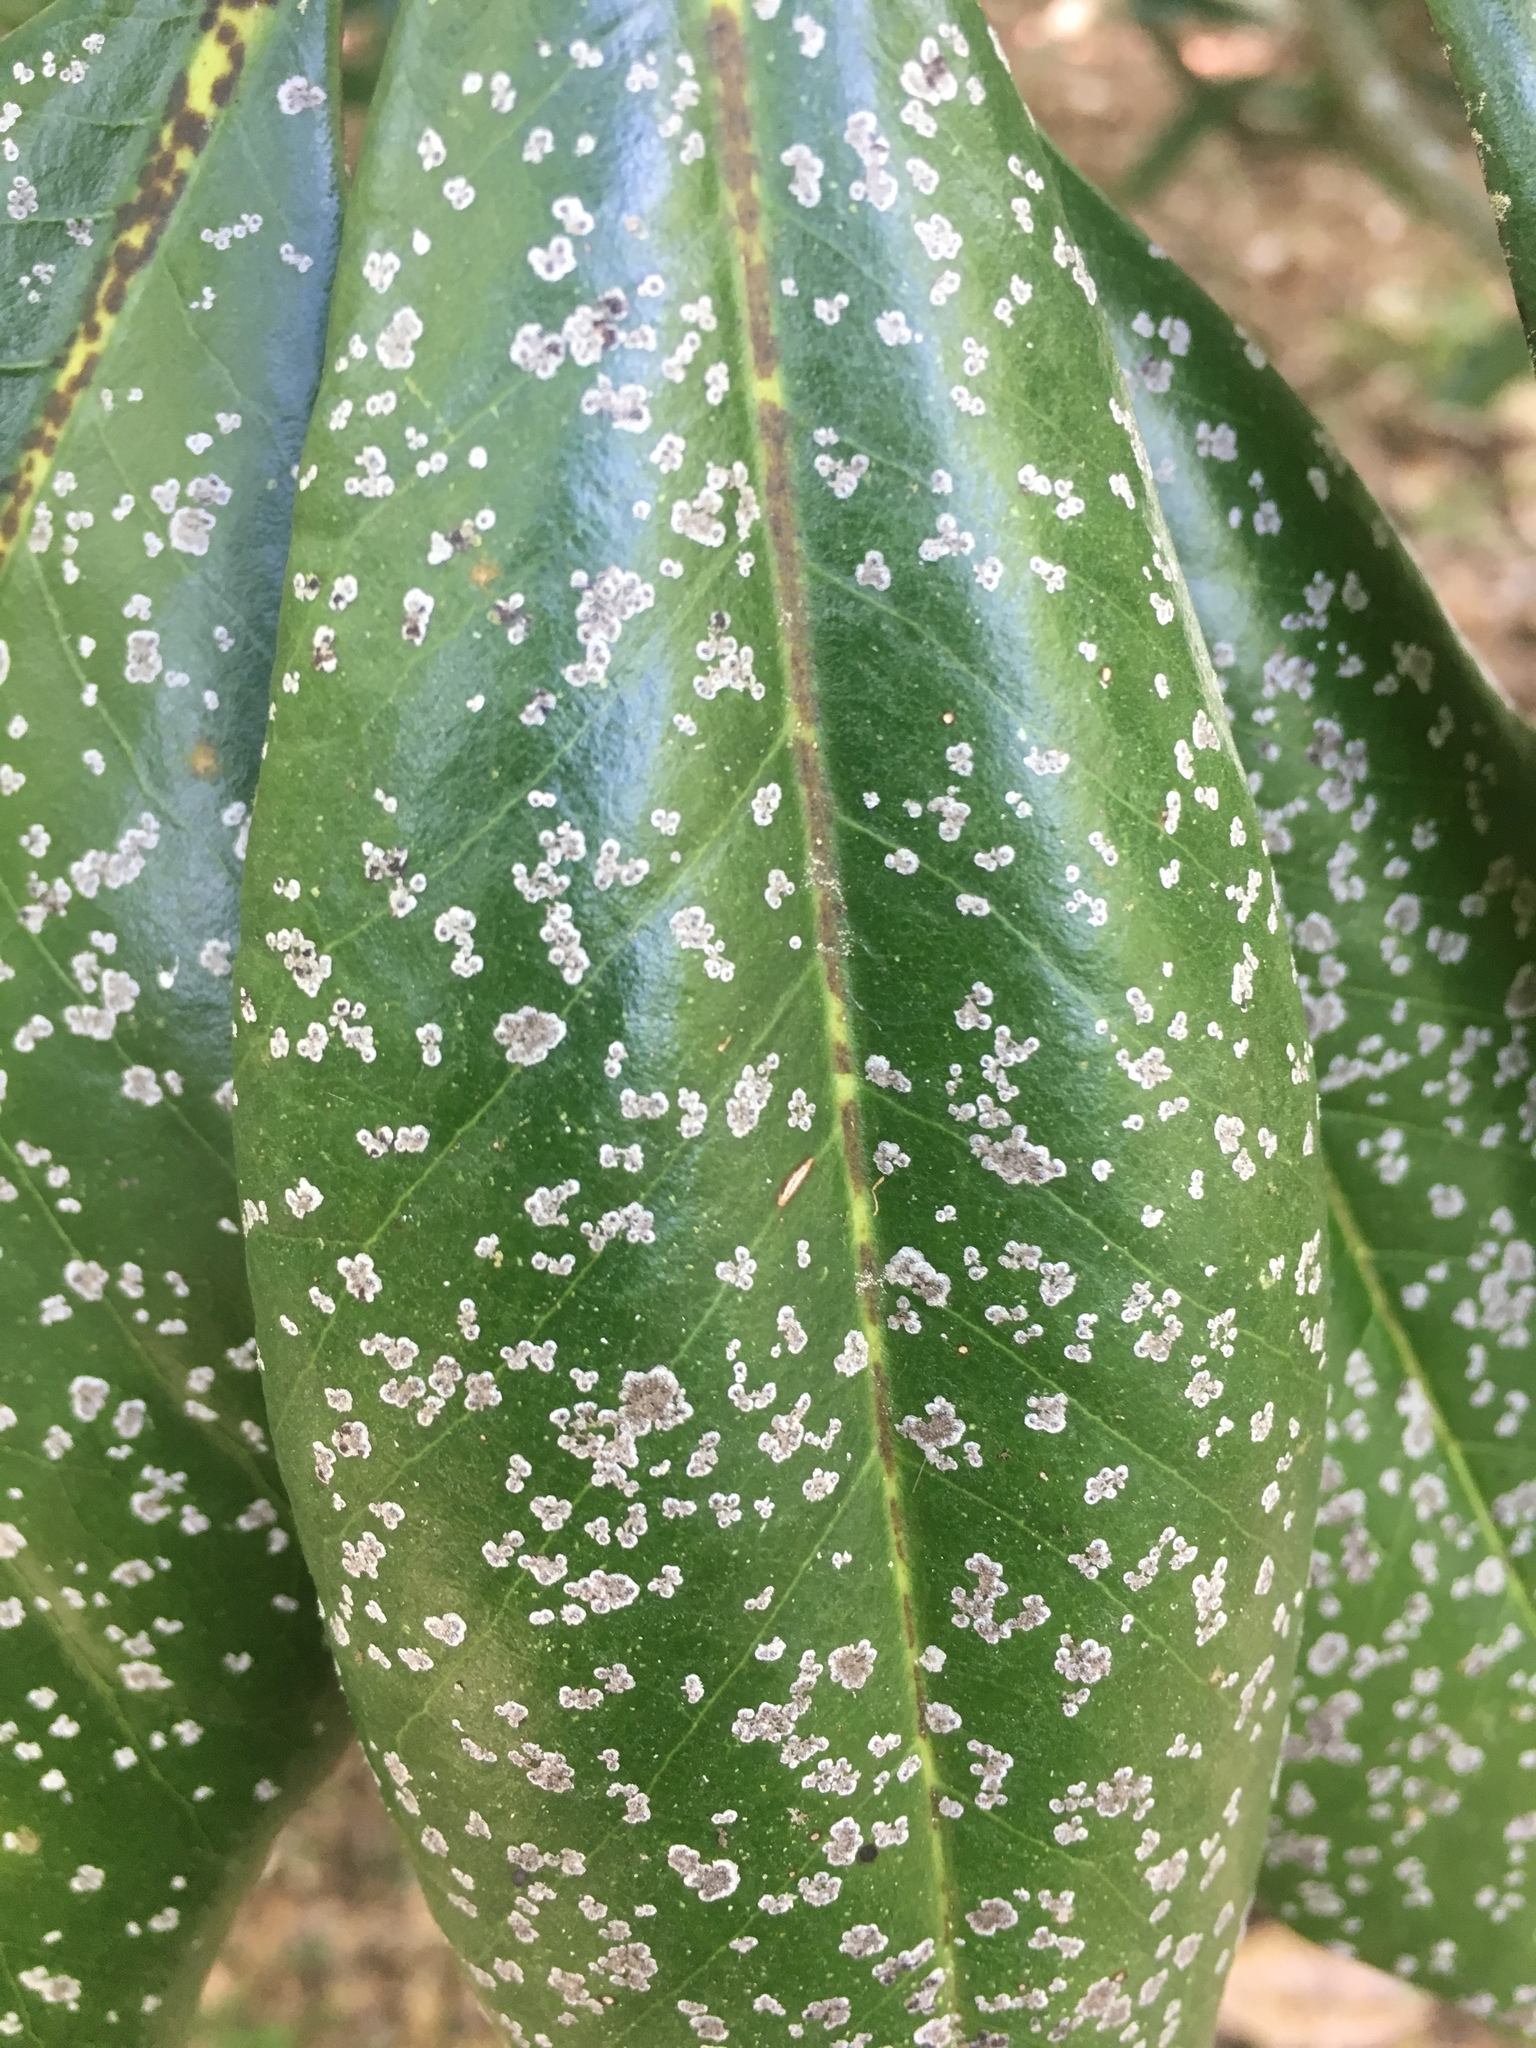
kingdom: Plantae
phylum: Chlorophyta
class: Ulvophyceae
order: Trentepohliales
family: Trentepohliaceae
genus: Cephaleuros
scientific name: Cephaleuros virescens
